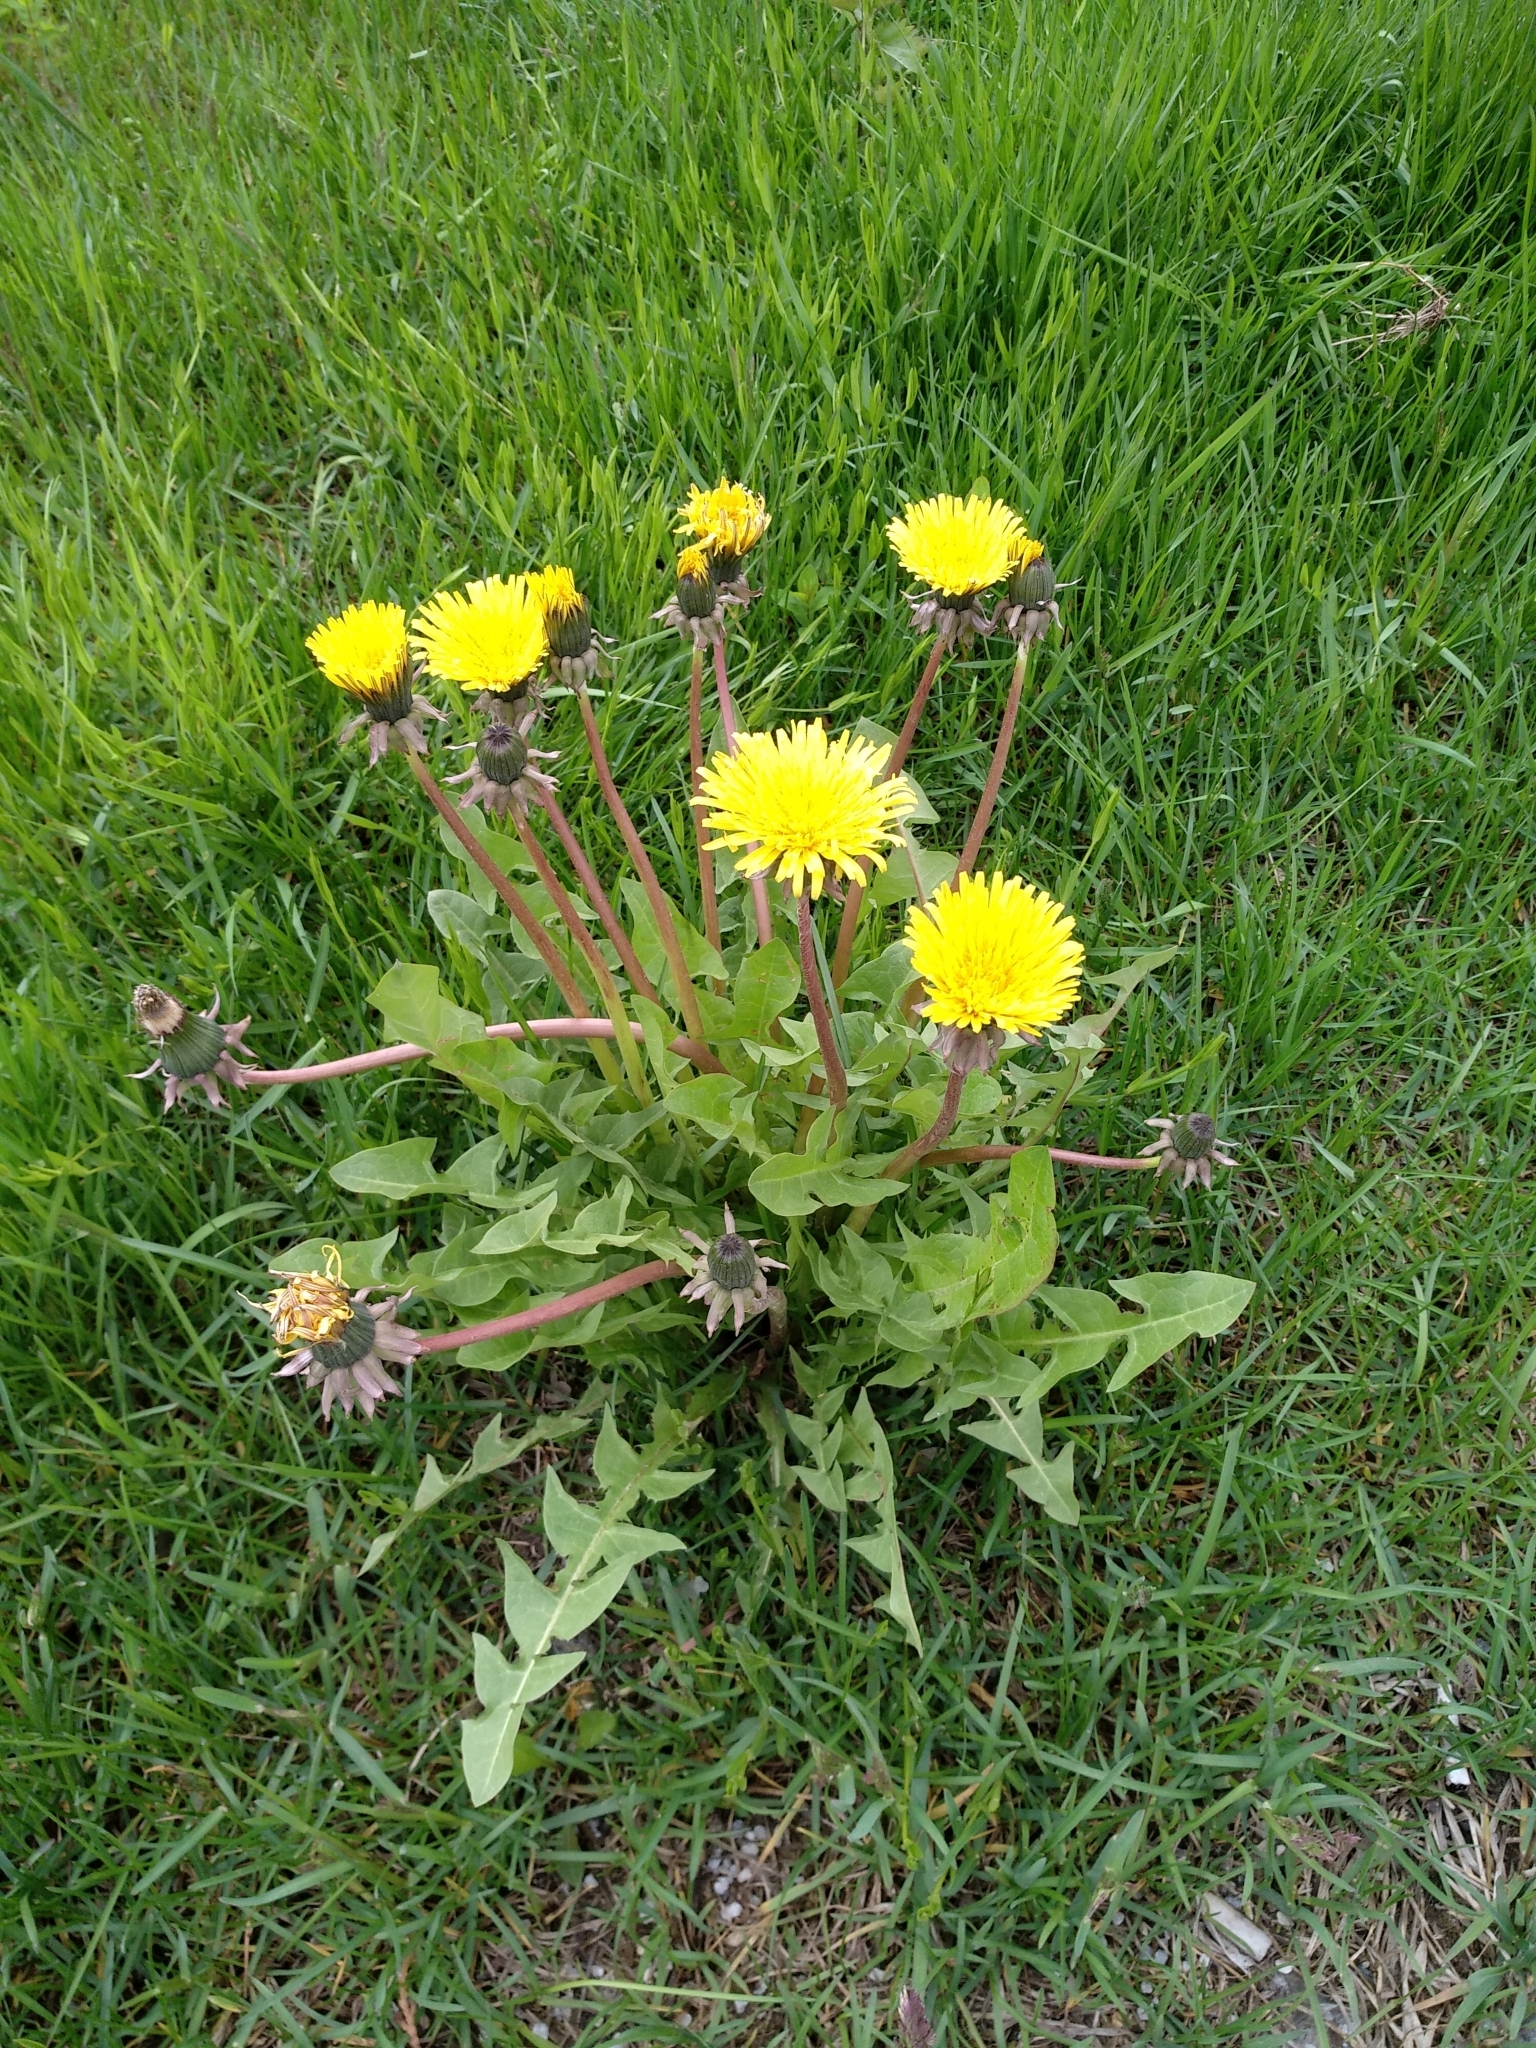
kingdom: Plantae
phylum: Tracheophyta
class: Magnoliopsida
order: Asterales
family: Asteraceae
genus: Taraxacum
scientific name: Taraxacum officinale
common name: Common dandelion
